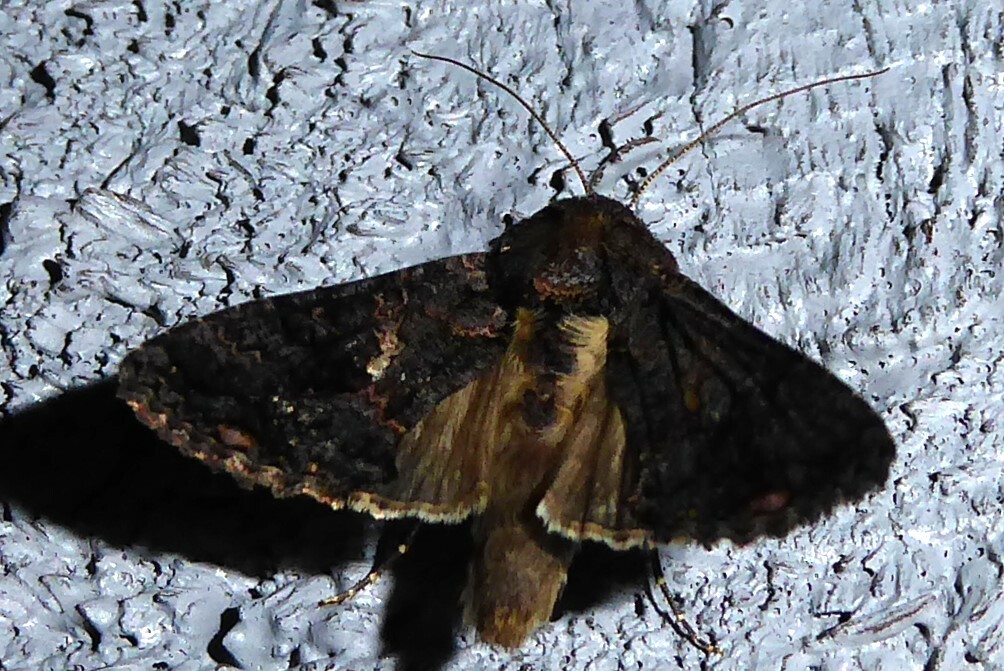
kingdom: Animalia
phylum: Arthropoda
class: Insecta
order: Lepidoptera
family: Noctuidae
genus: Ctenoplusia
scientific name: Ctenoplusia limbirena
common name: Scar bank gem
